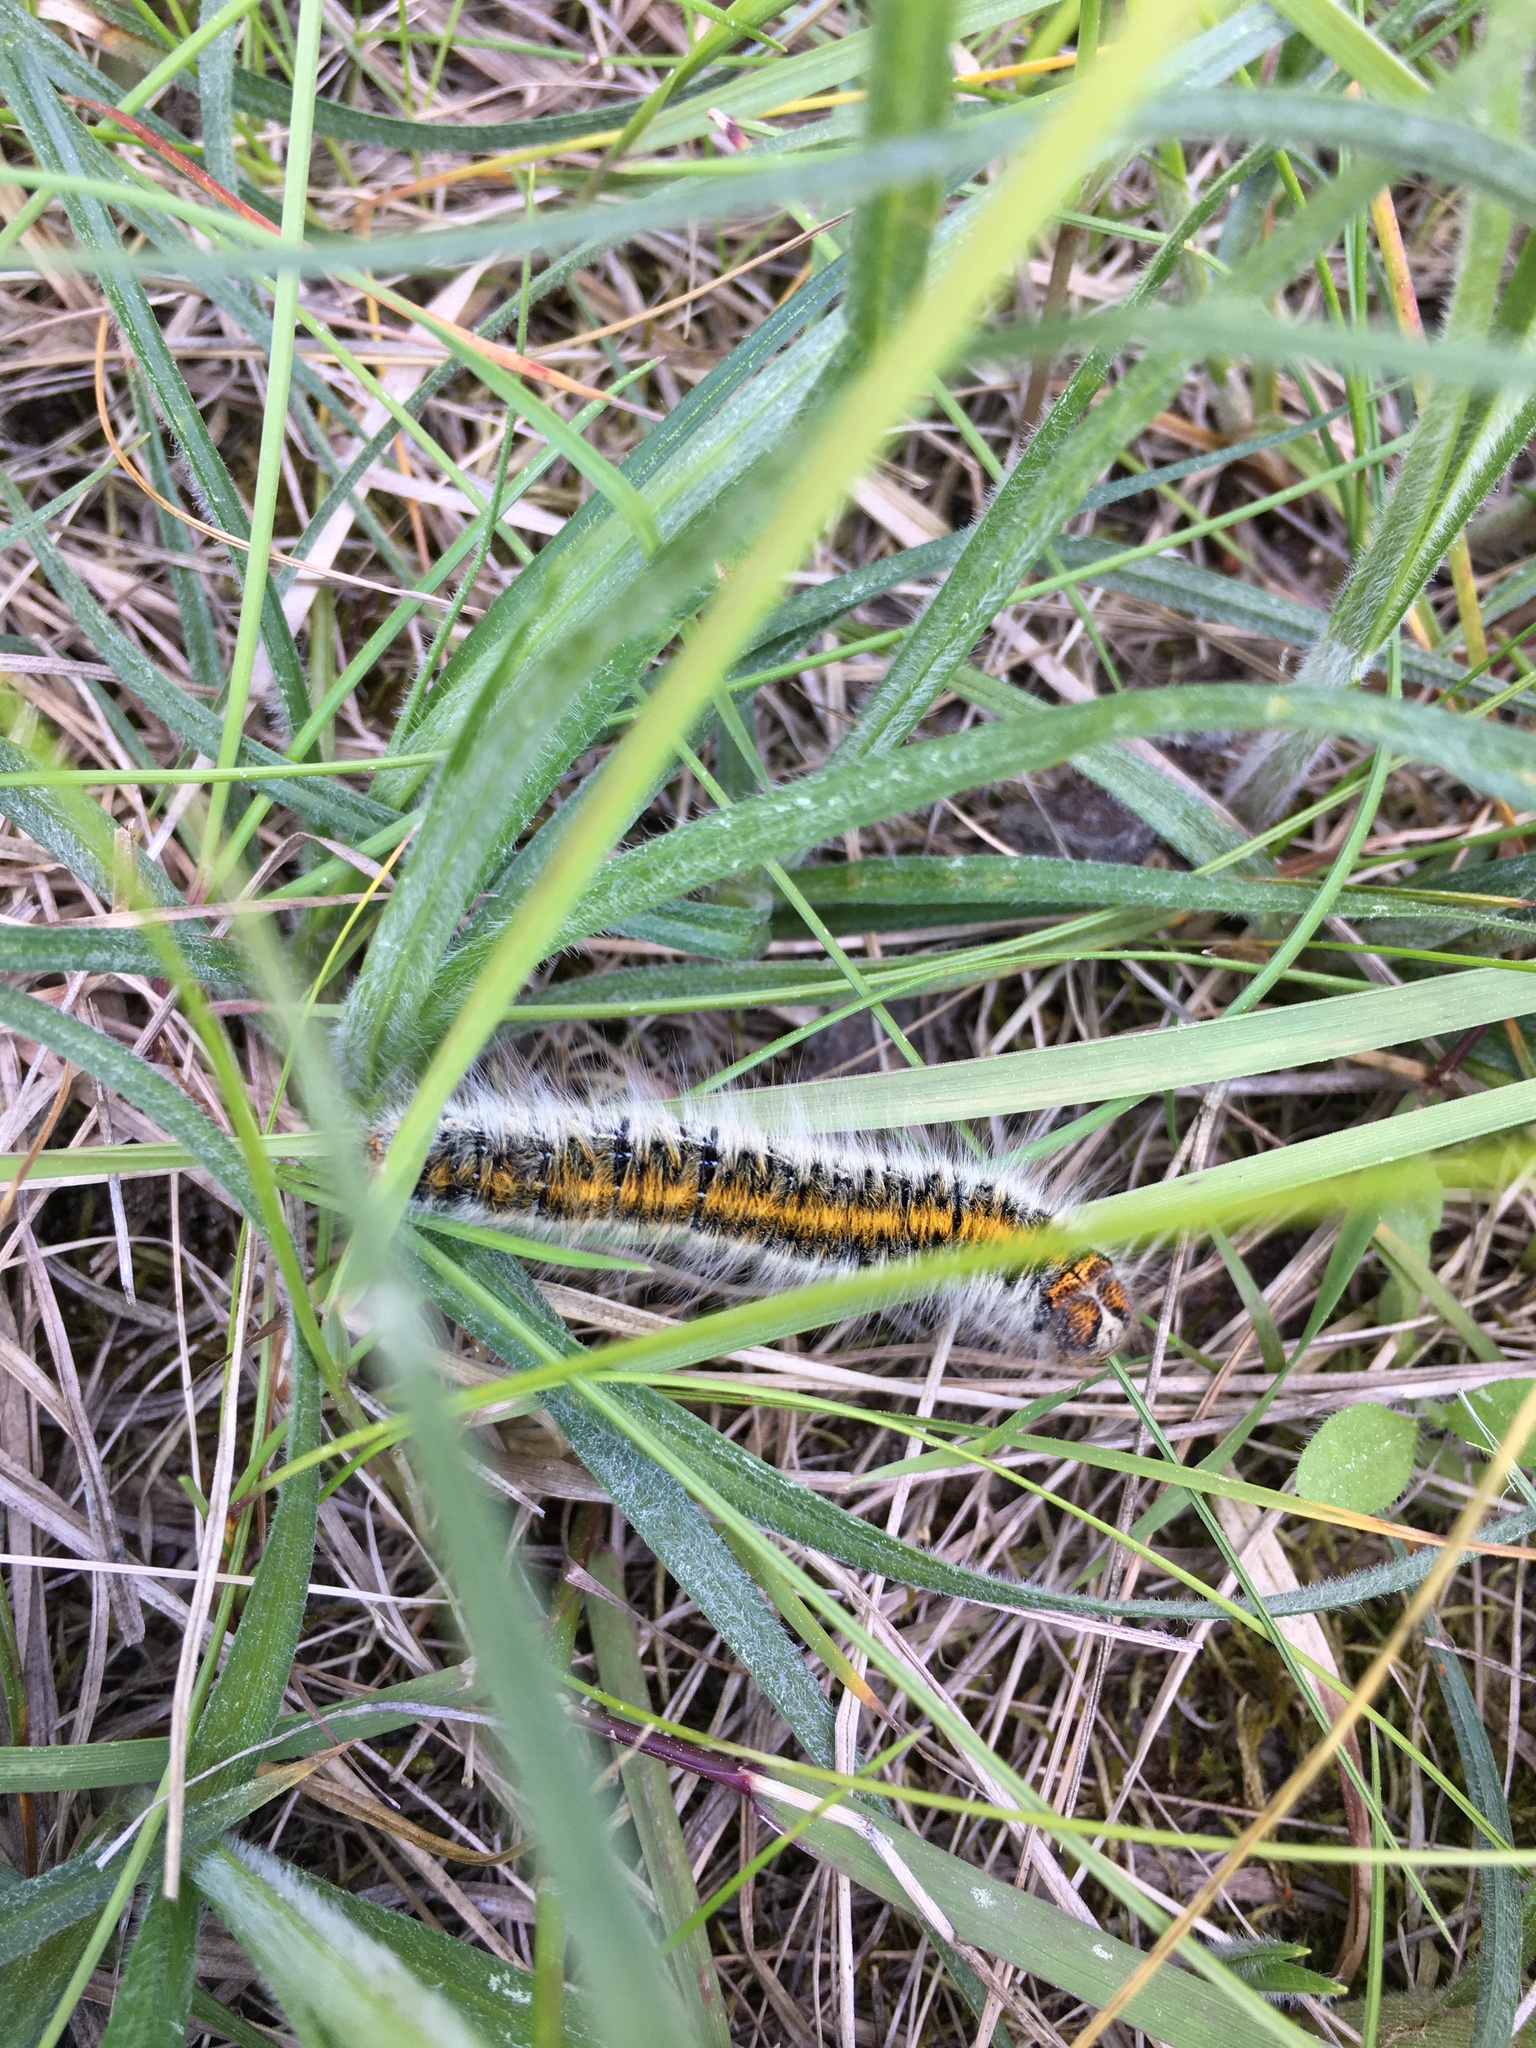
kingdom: Animalia
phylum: Arthropoda
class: Insecta
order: Lepidoptera
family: Lasiocampidae
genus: Lasiocampa
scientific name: Lasiocampa trifolii
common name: Grass eggar
